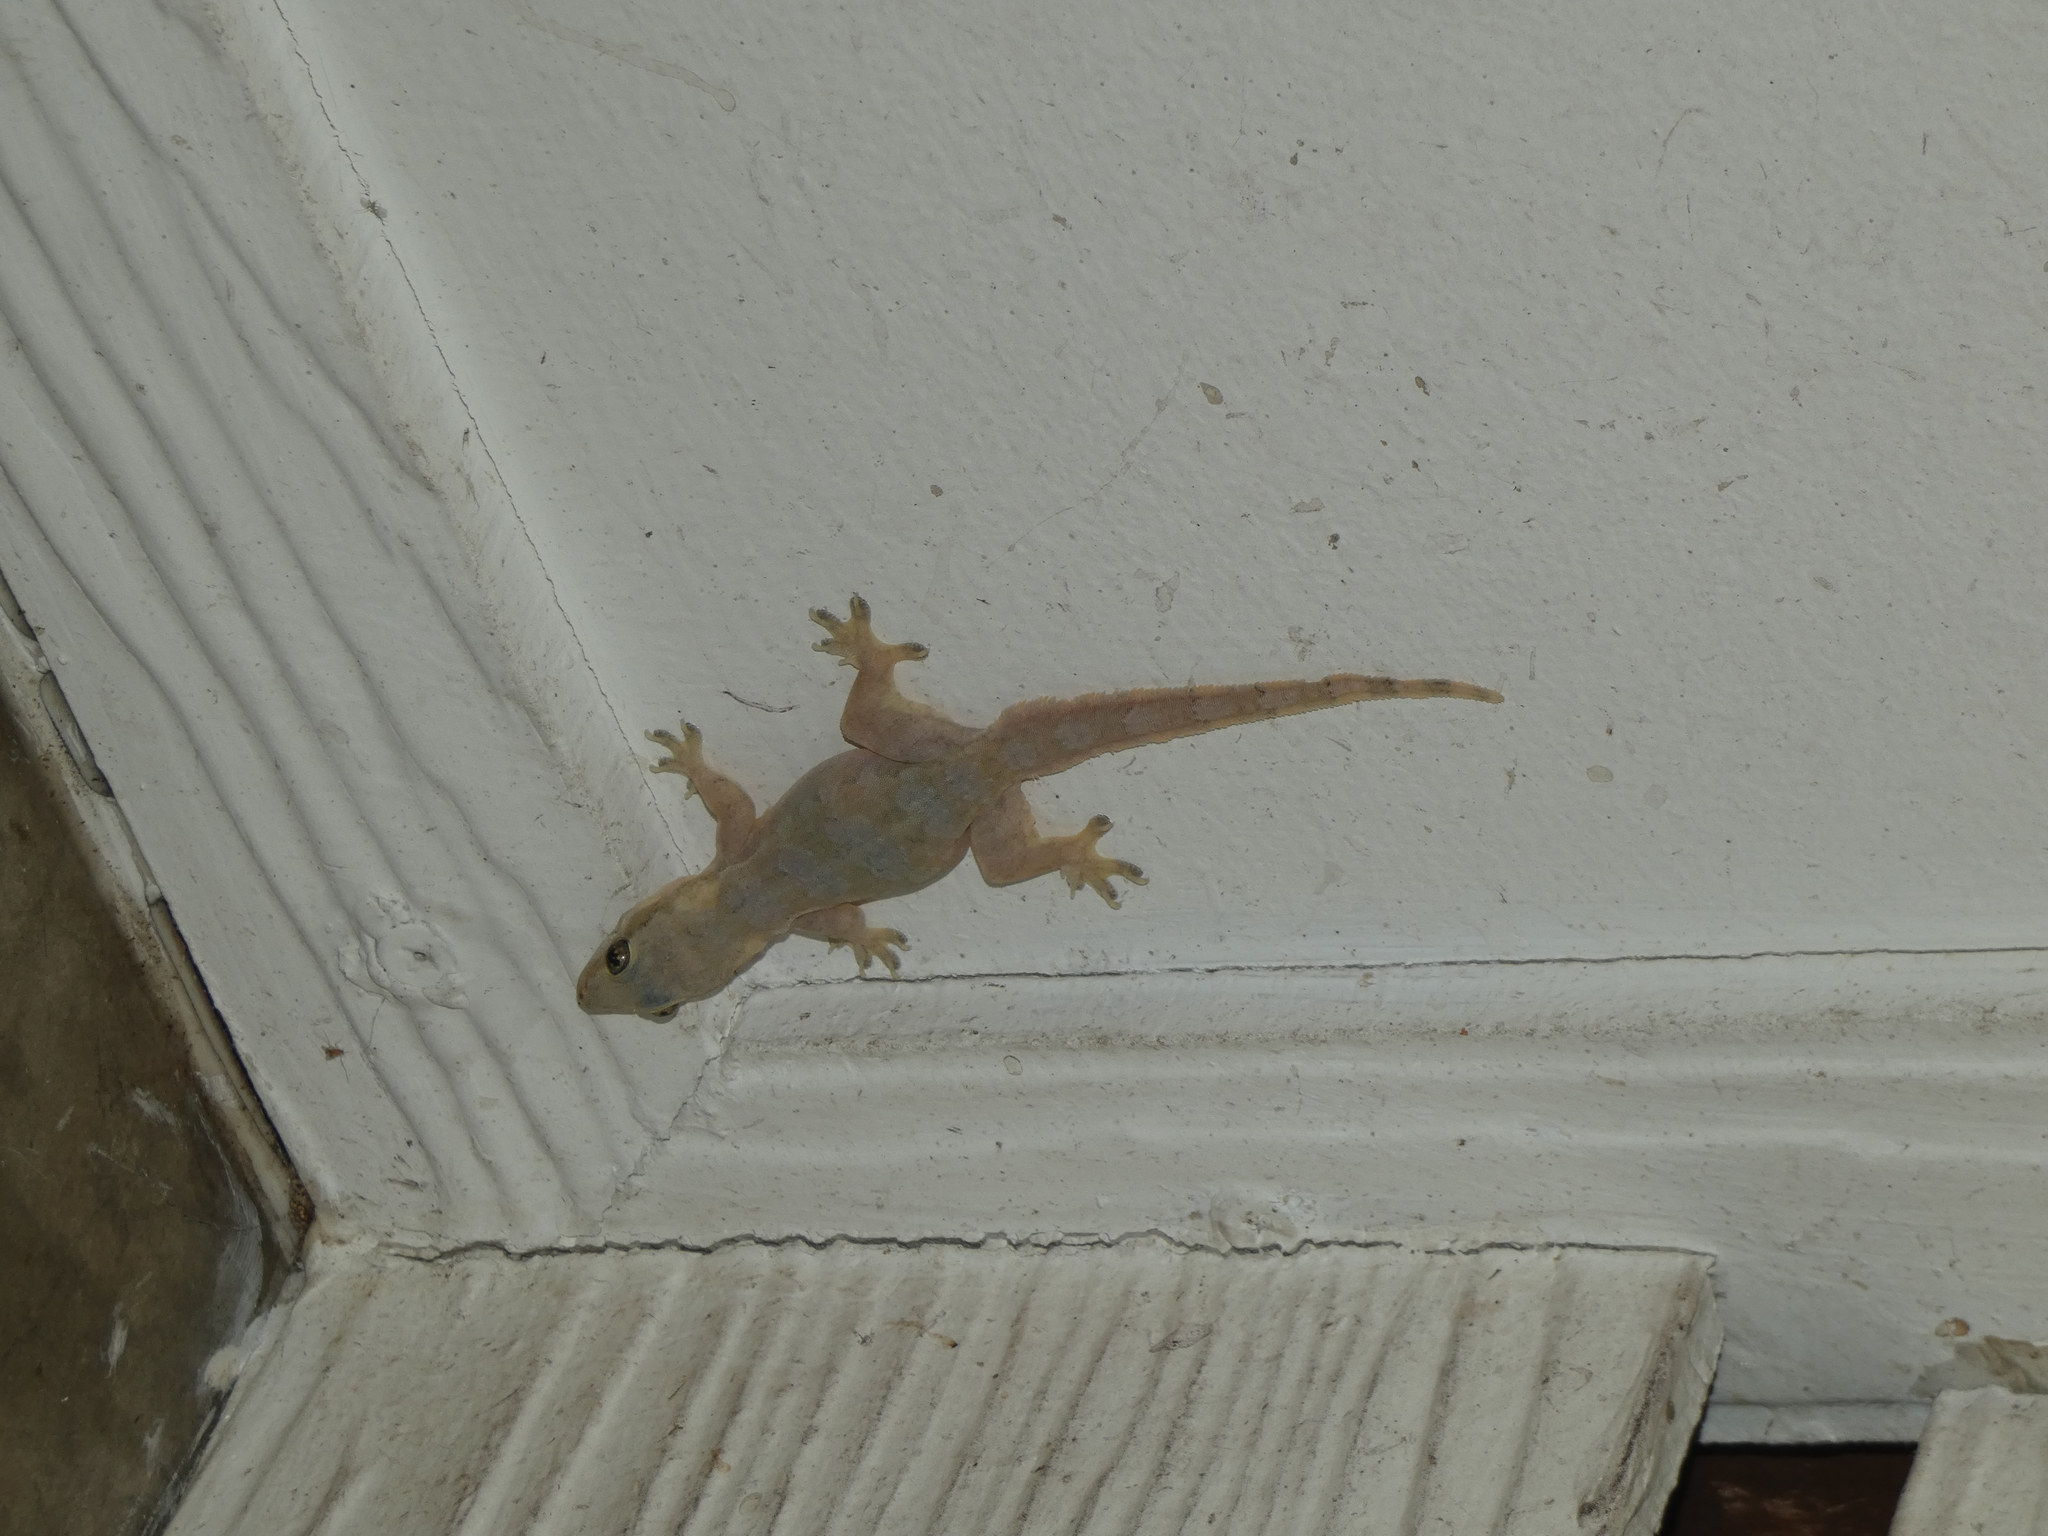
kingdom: Animalia
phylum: Chordata
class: Squamata
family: Gekkonidae
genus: Hemidactylus
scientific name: Hemidactylus platyurus
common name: Flat-tailed house gecko
